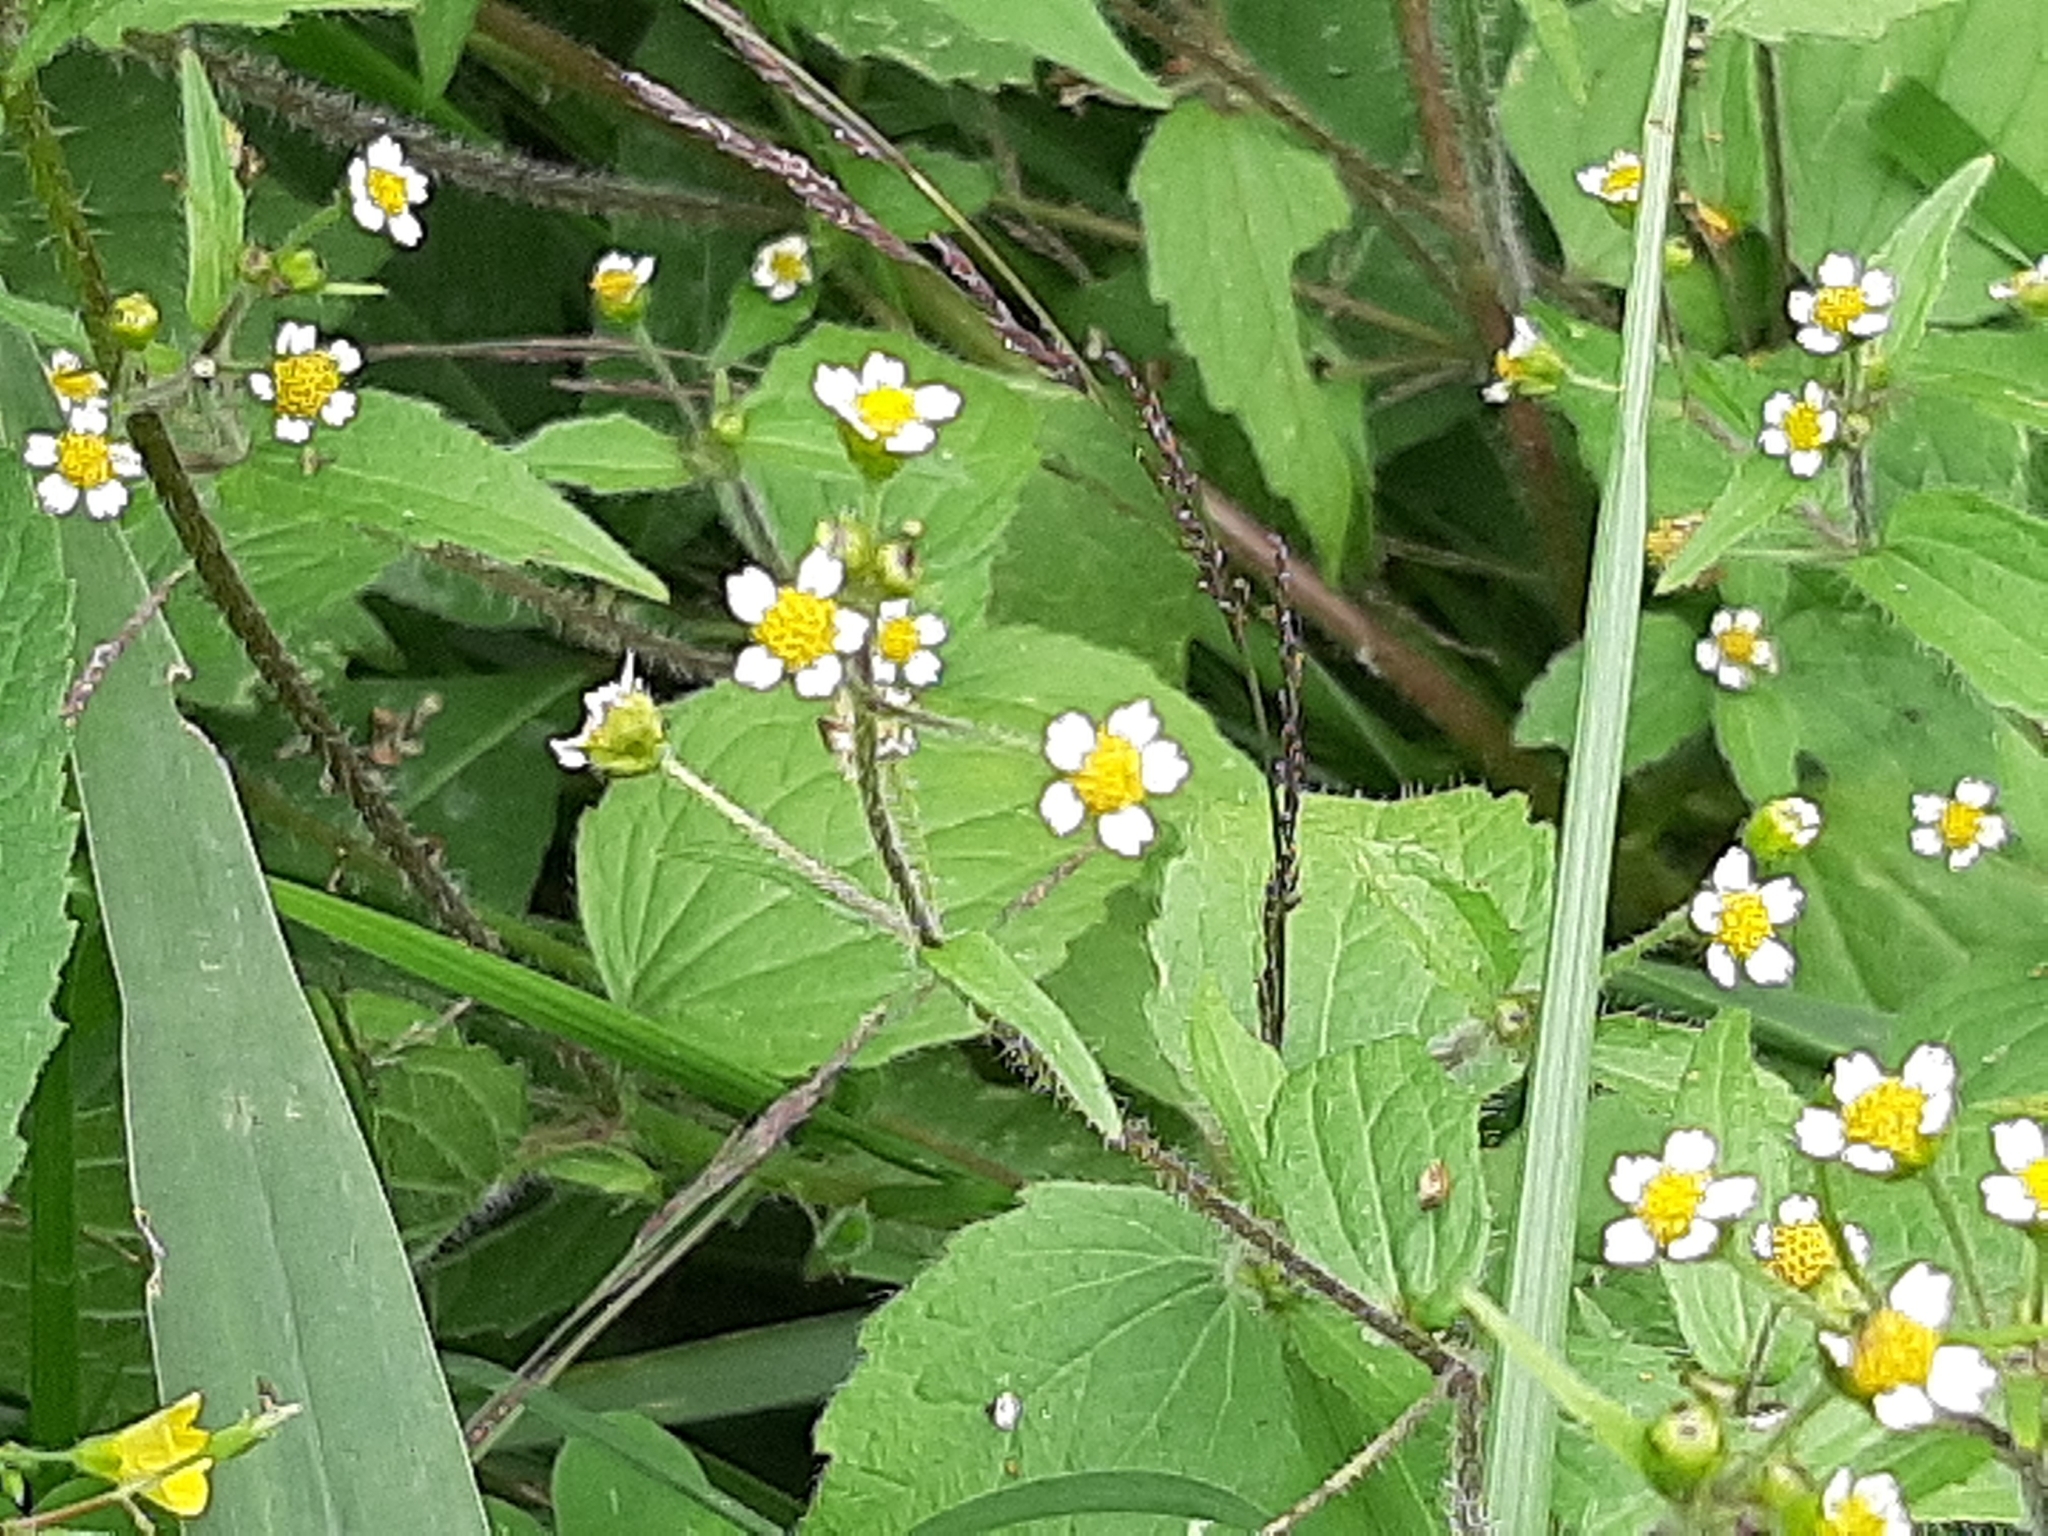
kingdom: Plantae
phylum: Tracheophyta
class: Magnoliopsida
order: Asterales
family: Asteraceae
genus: Galinsoga
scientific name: Galinsoga quadriradiata
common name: Shaggy soldier
